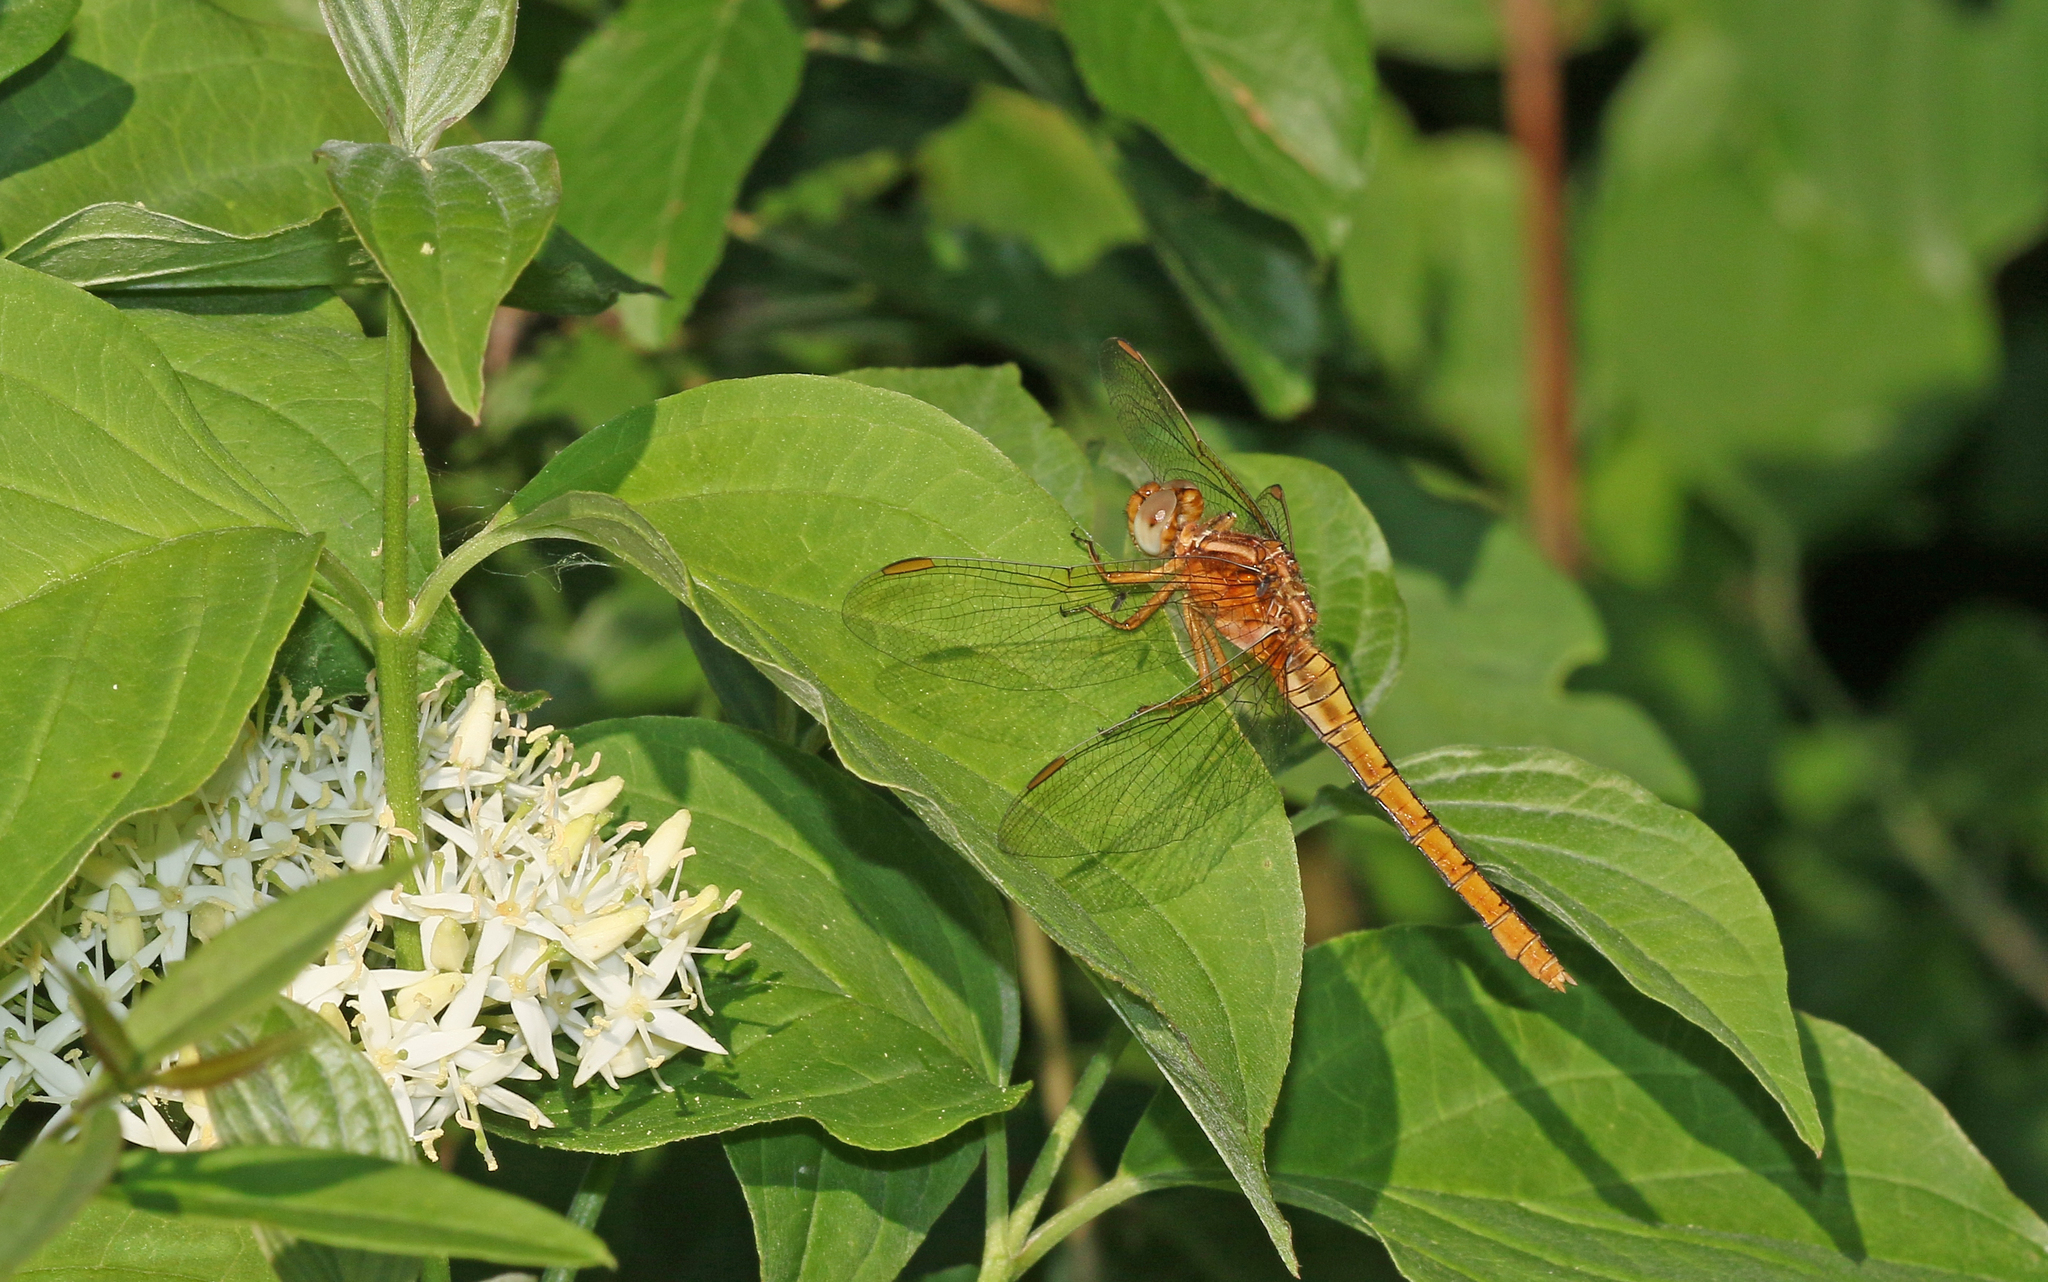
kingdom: Animalia
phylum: Arthropoda
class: Insecta
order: Odonata
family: Libellulidae
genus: Orthetrum
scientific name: Orthetrum coerulescens
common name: Keeled skimmer
